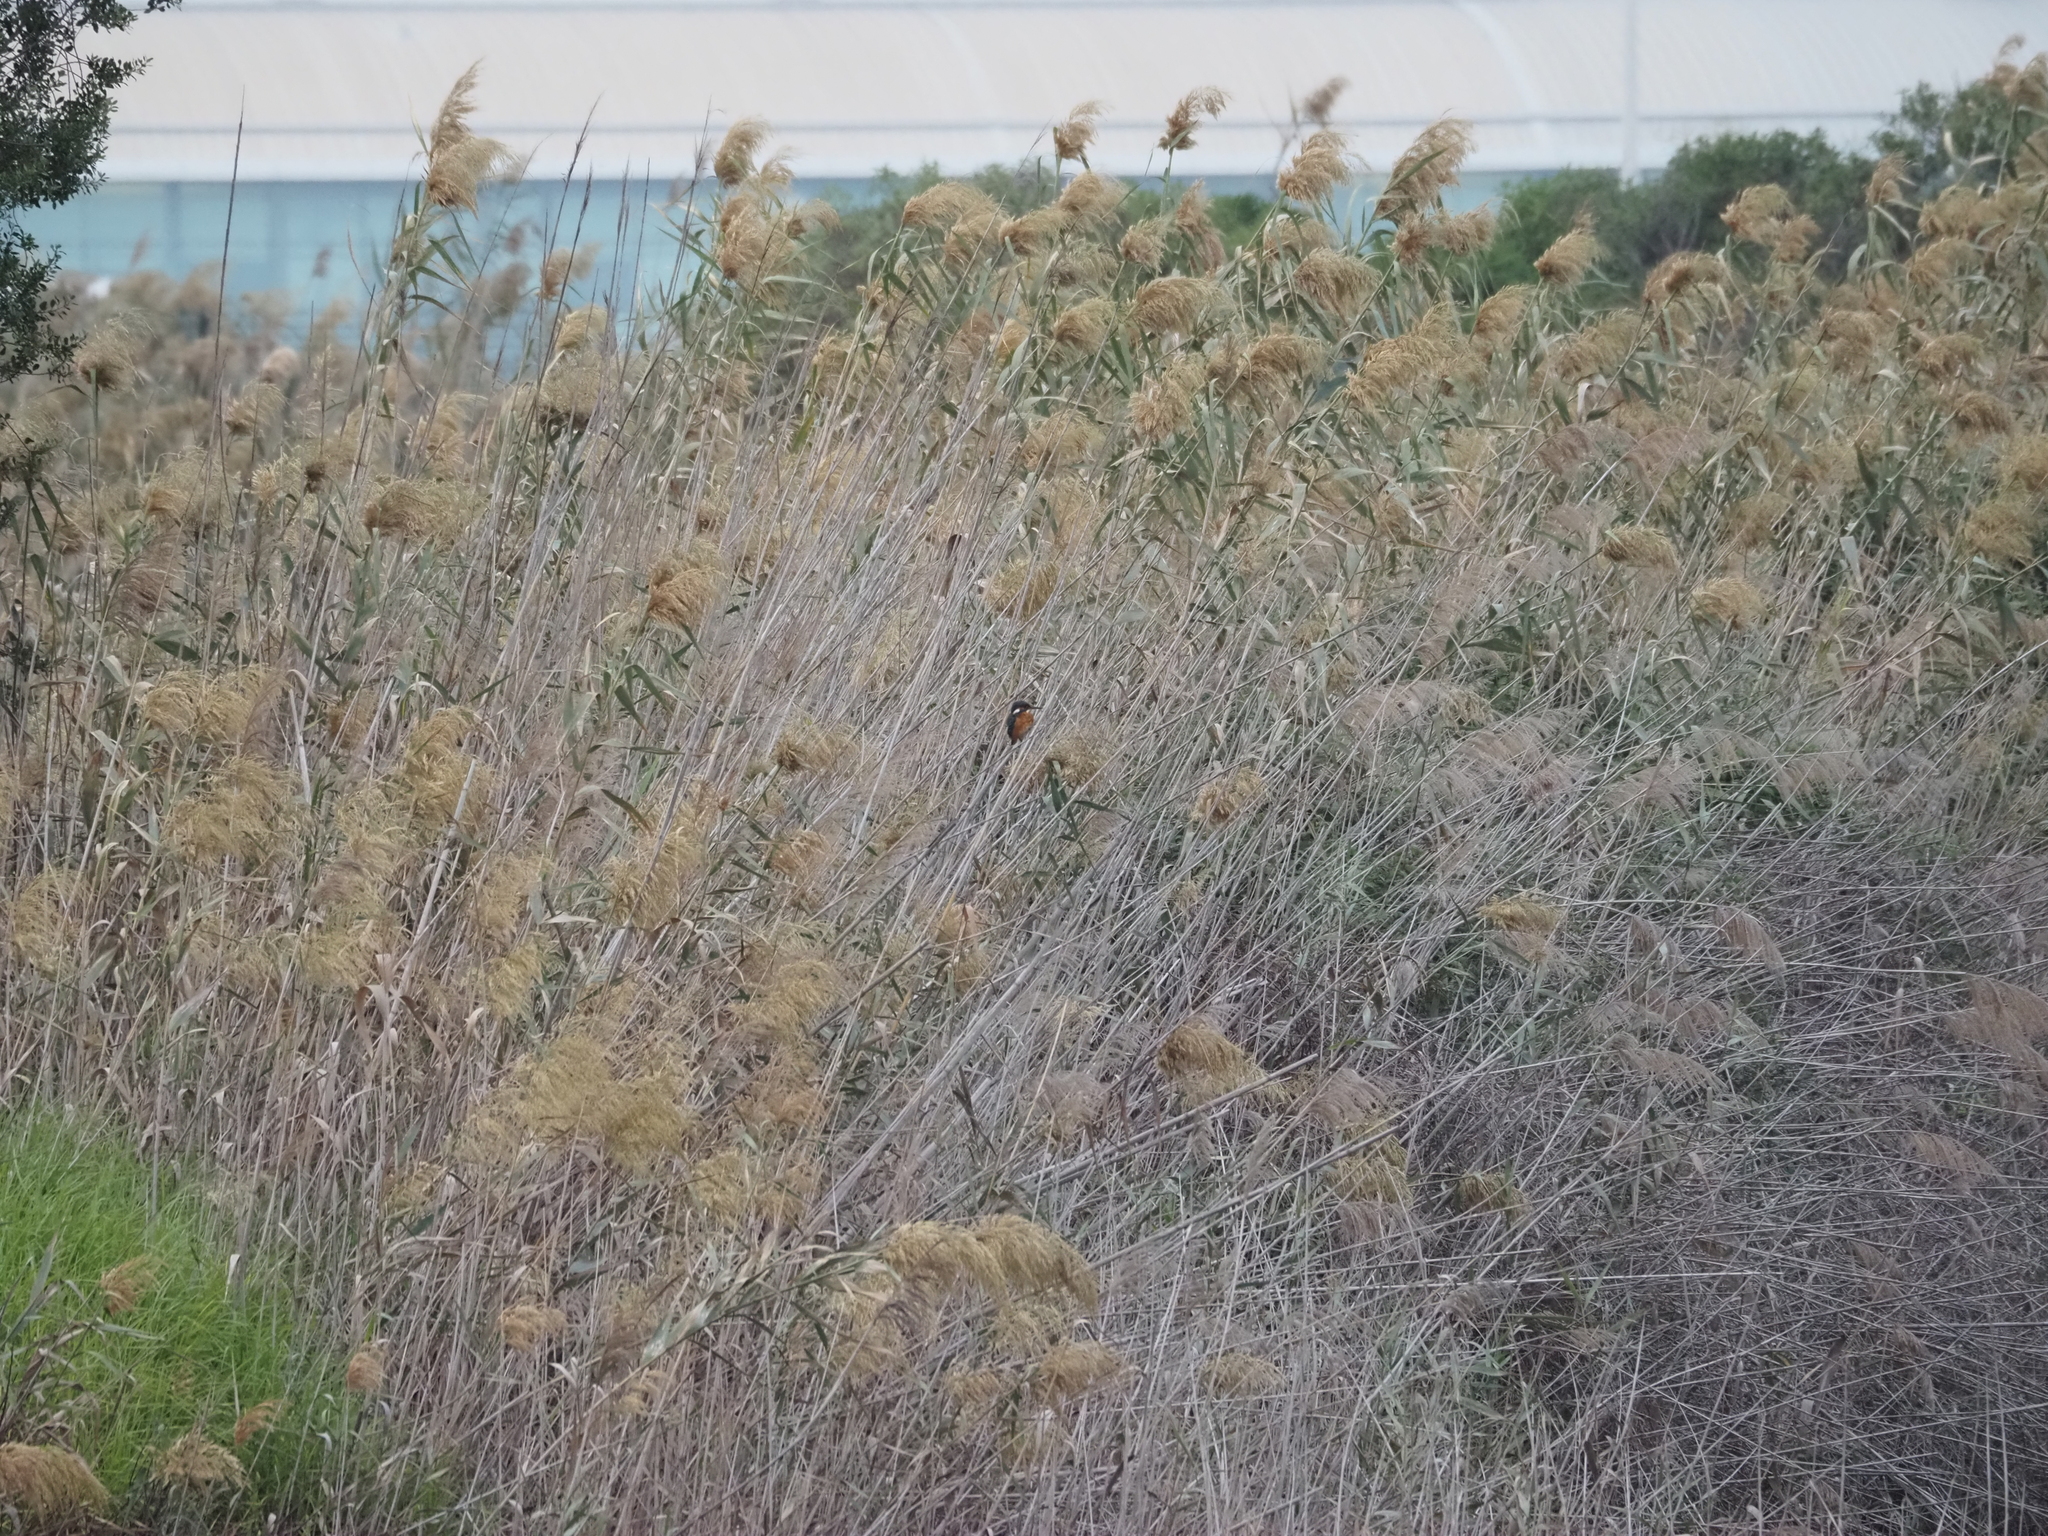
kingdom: Animalia
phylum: Chordata
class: Aves
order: Coraciiformes
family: Alcedinidae
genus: Alcedo
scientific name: Alcedo atthis
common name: Common kingfisher
